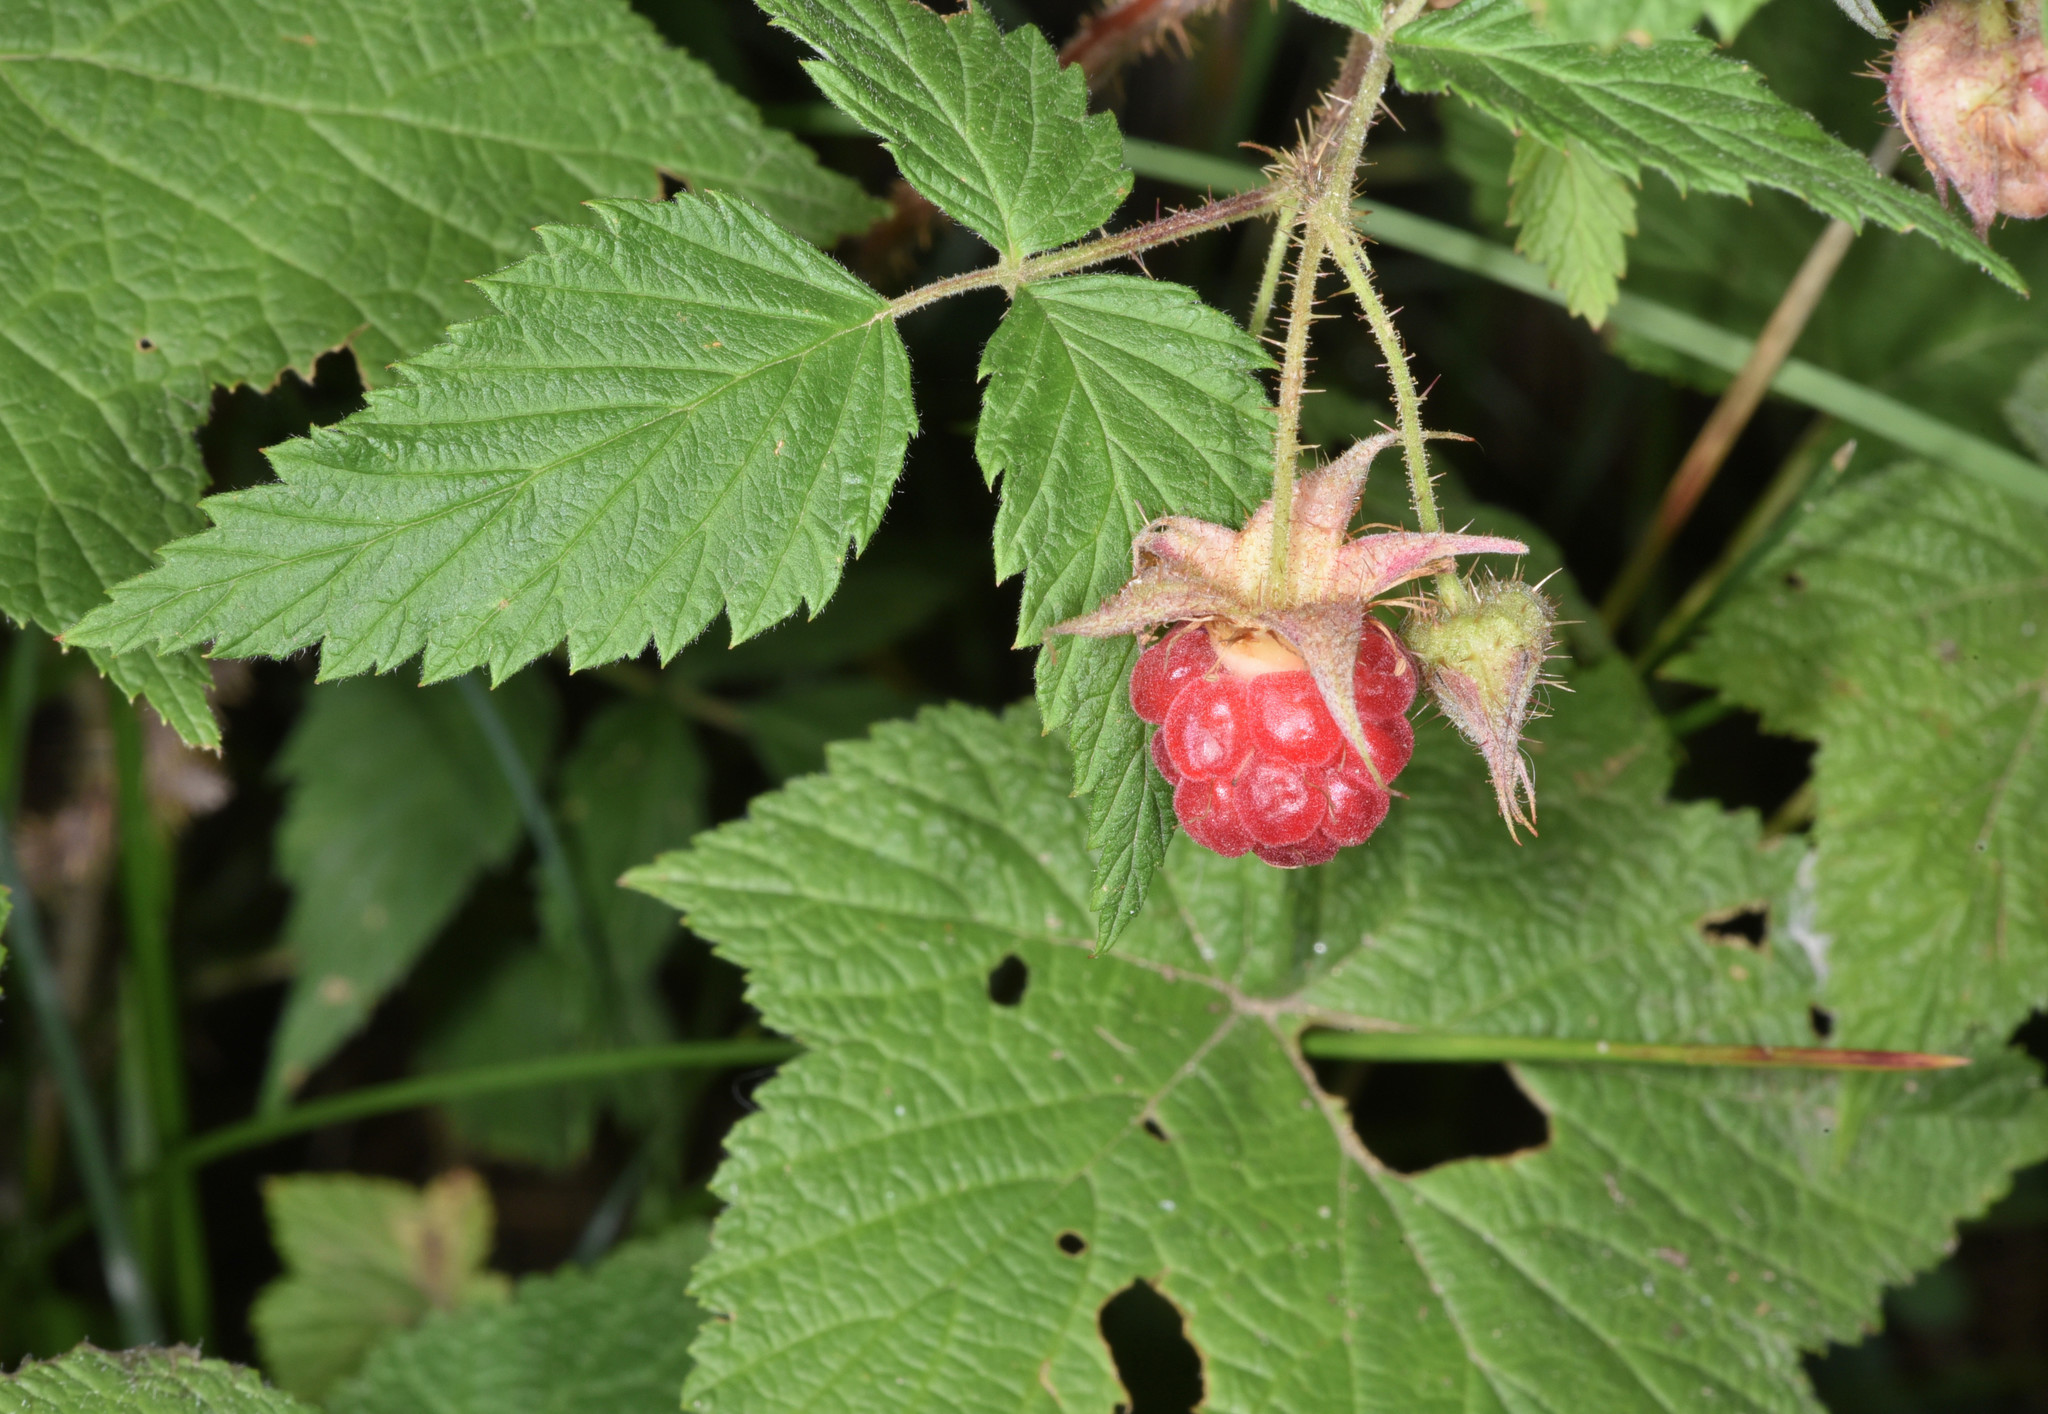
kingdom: Plantae
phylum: Tracheophyta
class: Magnoliopsida
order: Rosales
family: Rosaceae
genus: Rubus
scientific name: Rubus idaeus
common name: Raspberry
